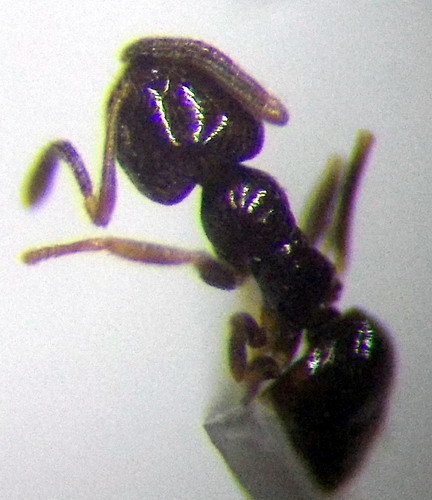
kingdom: Animalia
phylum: Arthropoda
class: Insecta
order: Hymenoptera
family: Formicidae
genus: Plagiolepis
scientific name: Plagiolepis pallescens
